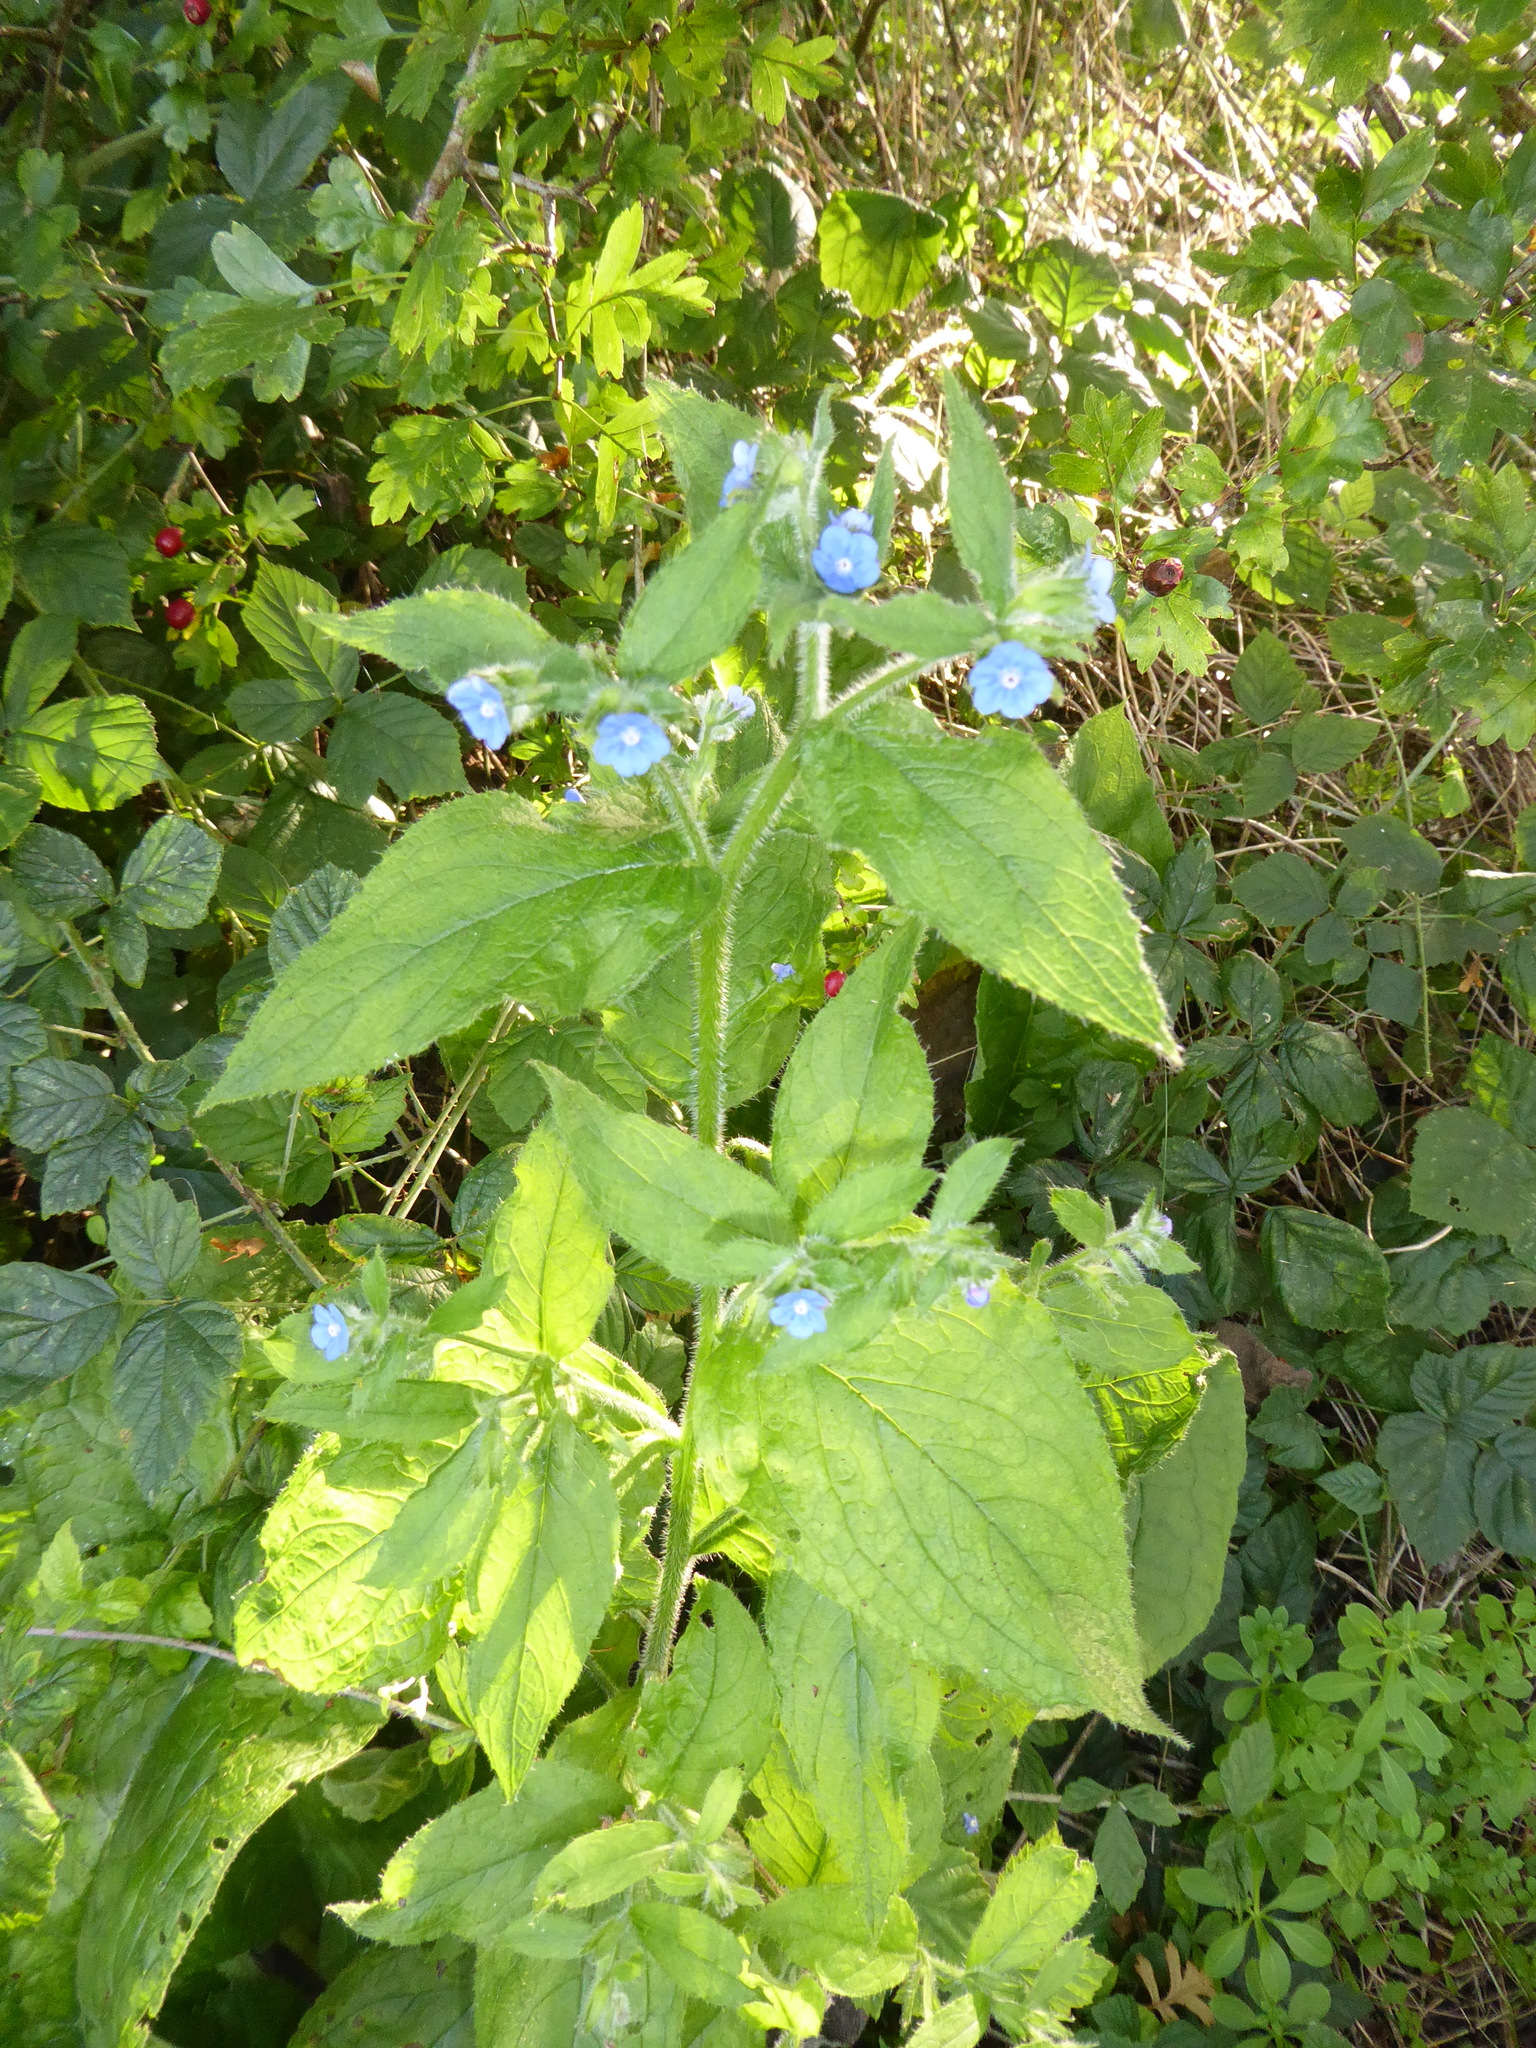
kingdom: Plantae
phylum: Tracheophyta
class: Magnoliopsida
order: Boraginales
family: Boraginaceae
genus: Pentaglottis
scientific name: Pentaglottis sempervirens
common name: Green alkanet
